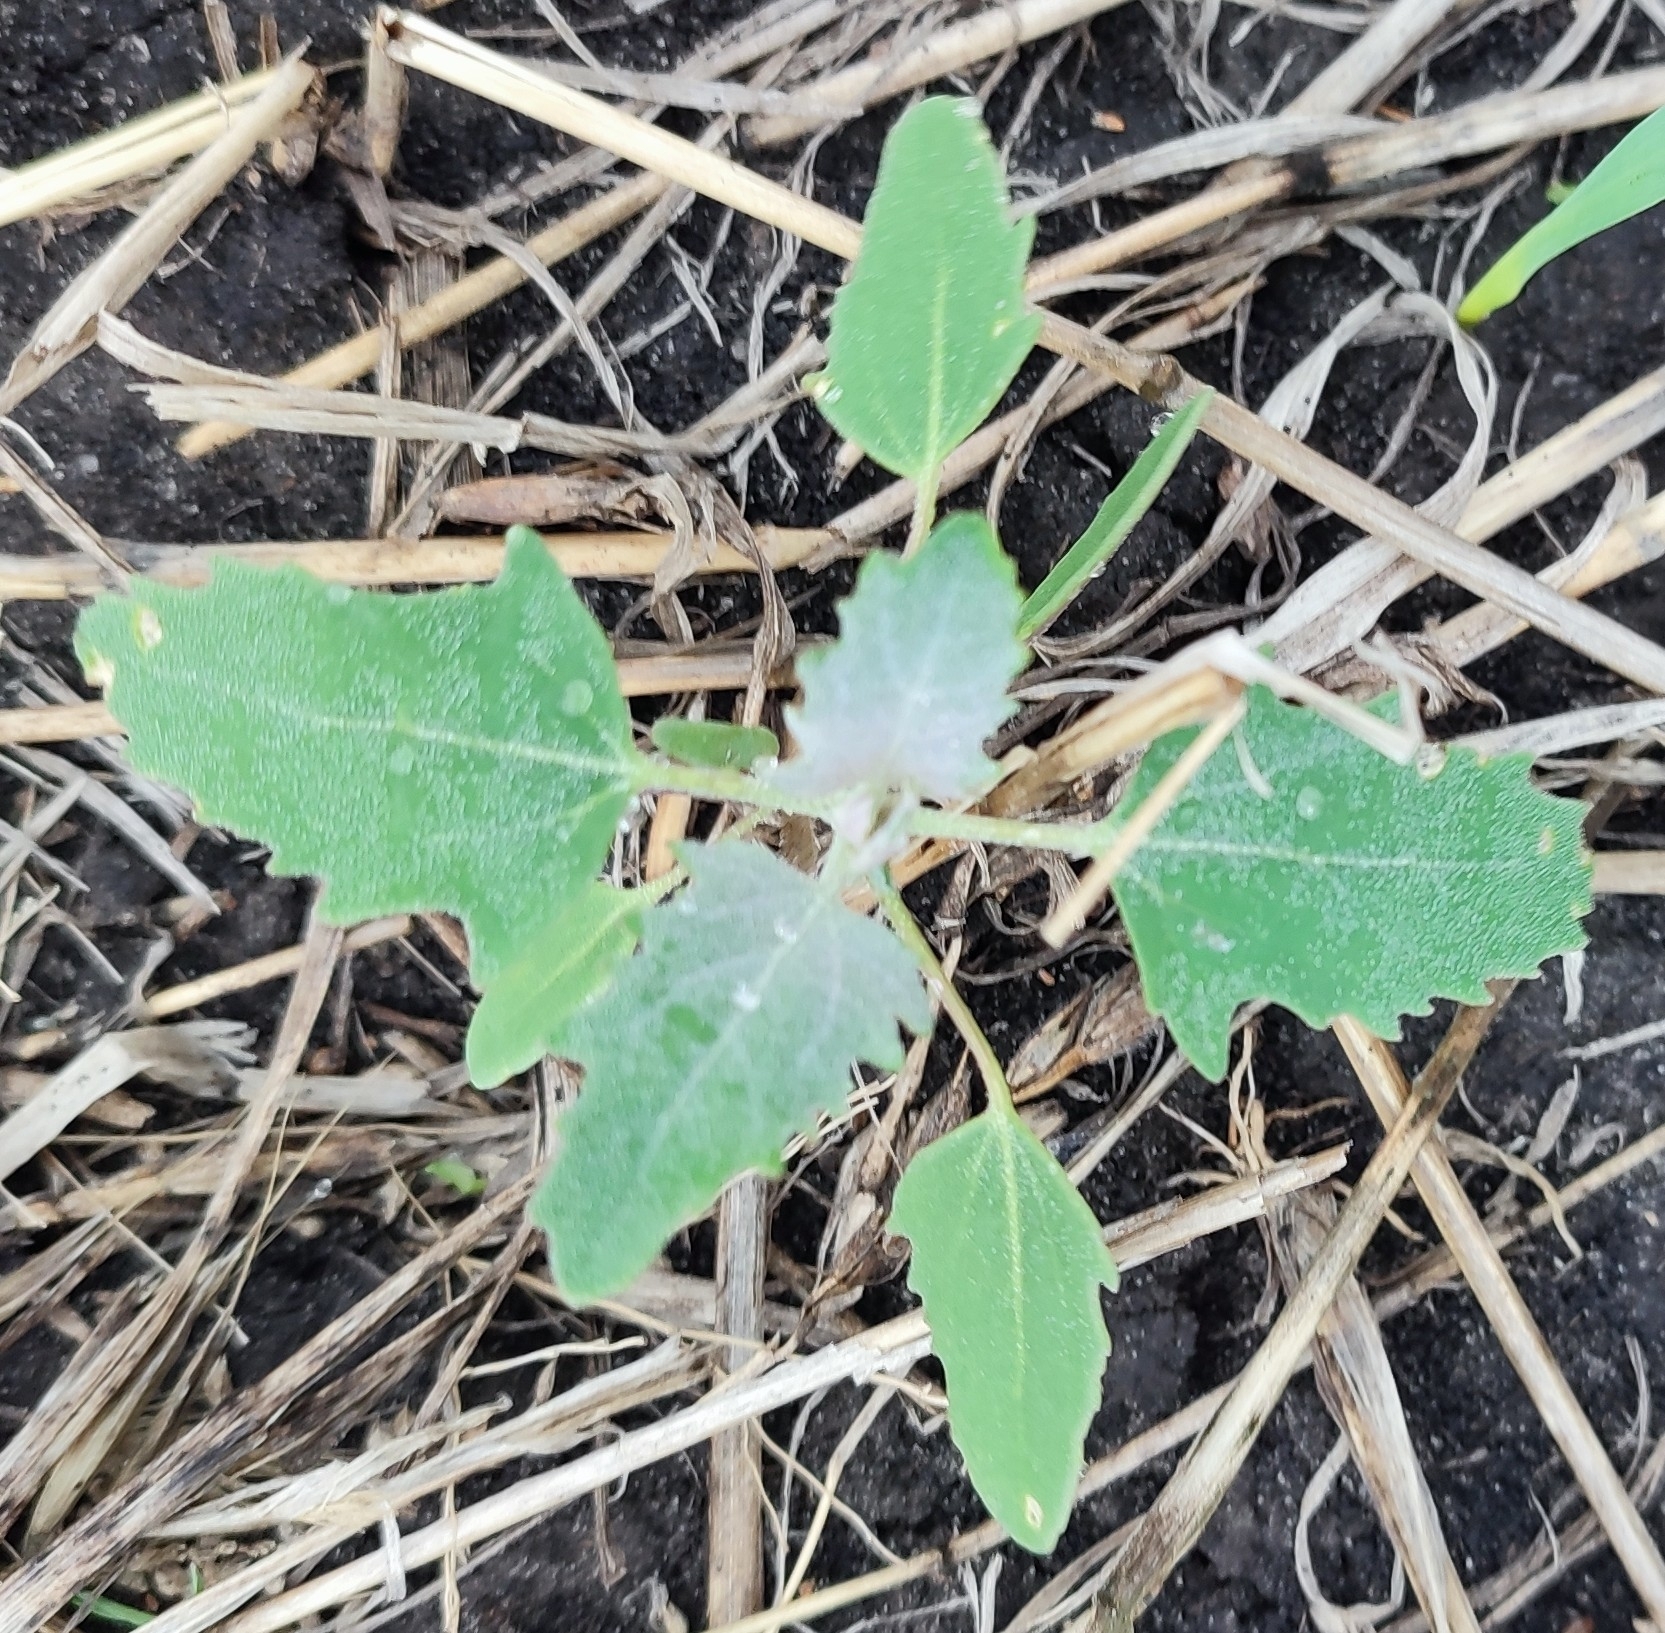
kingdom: Plantae
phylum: Tracheophyta
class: Magnoliopsida
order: Caryophyllales
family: Amaranthaceae
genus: Chenopodium
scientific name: Chenopodium album
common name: Fat-hen
